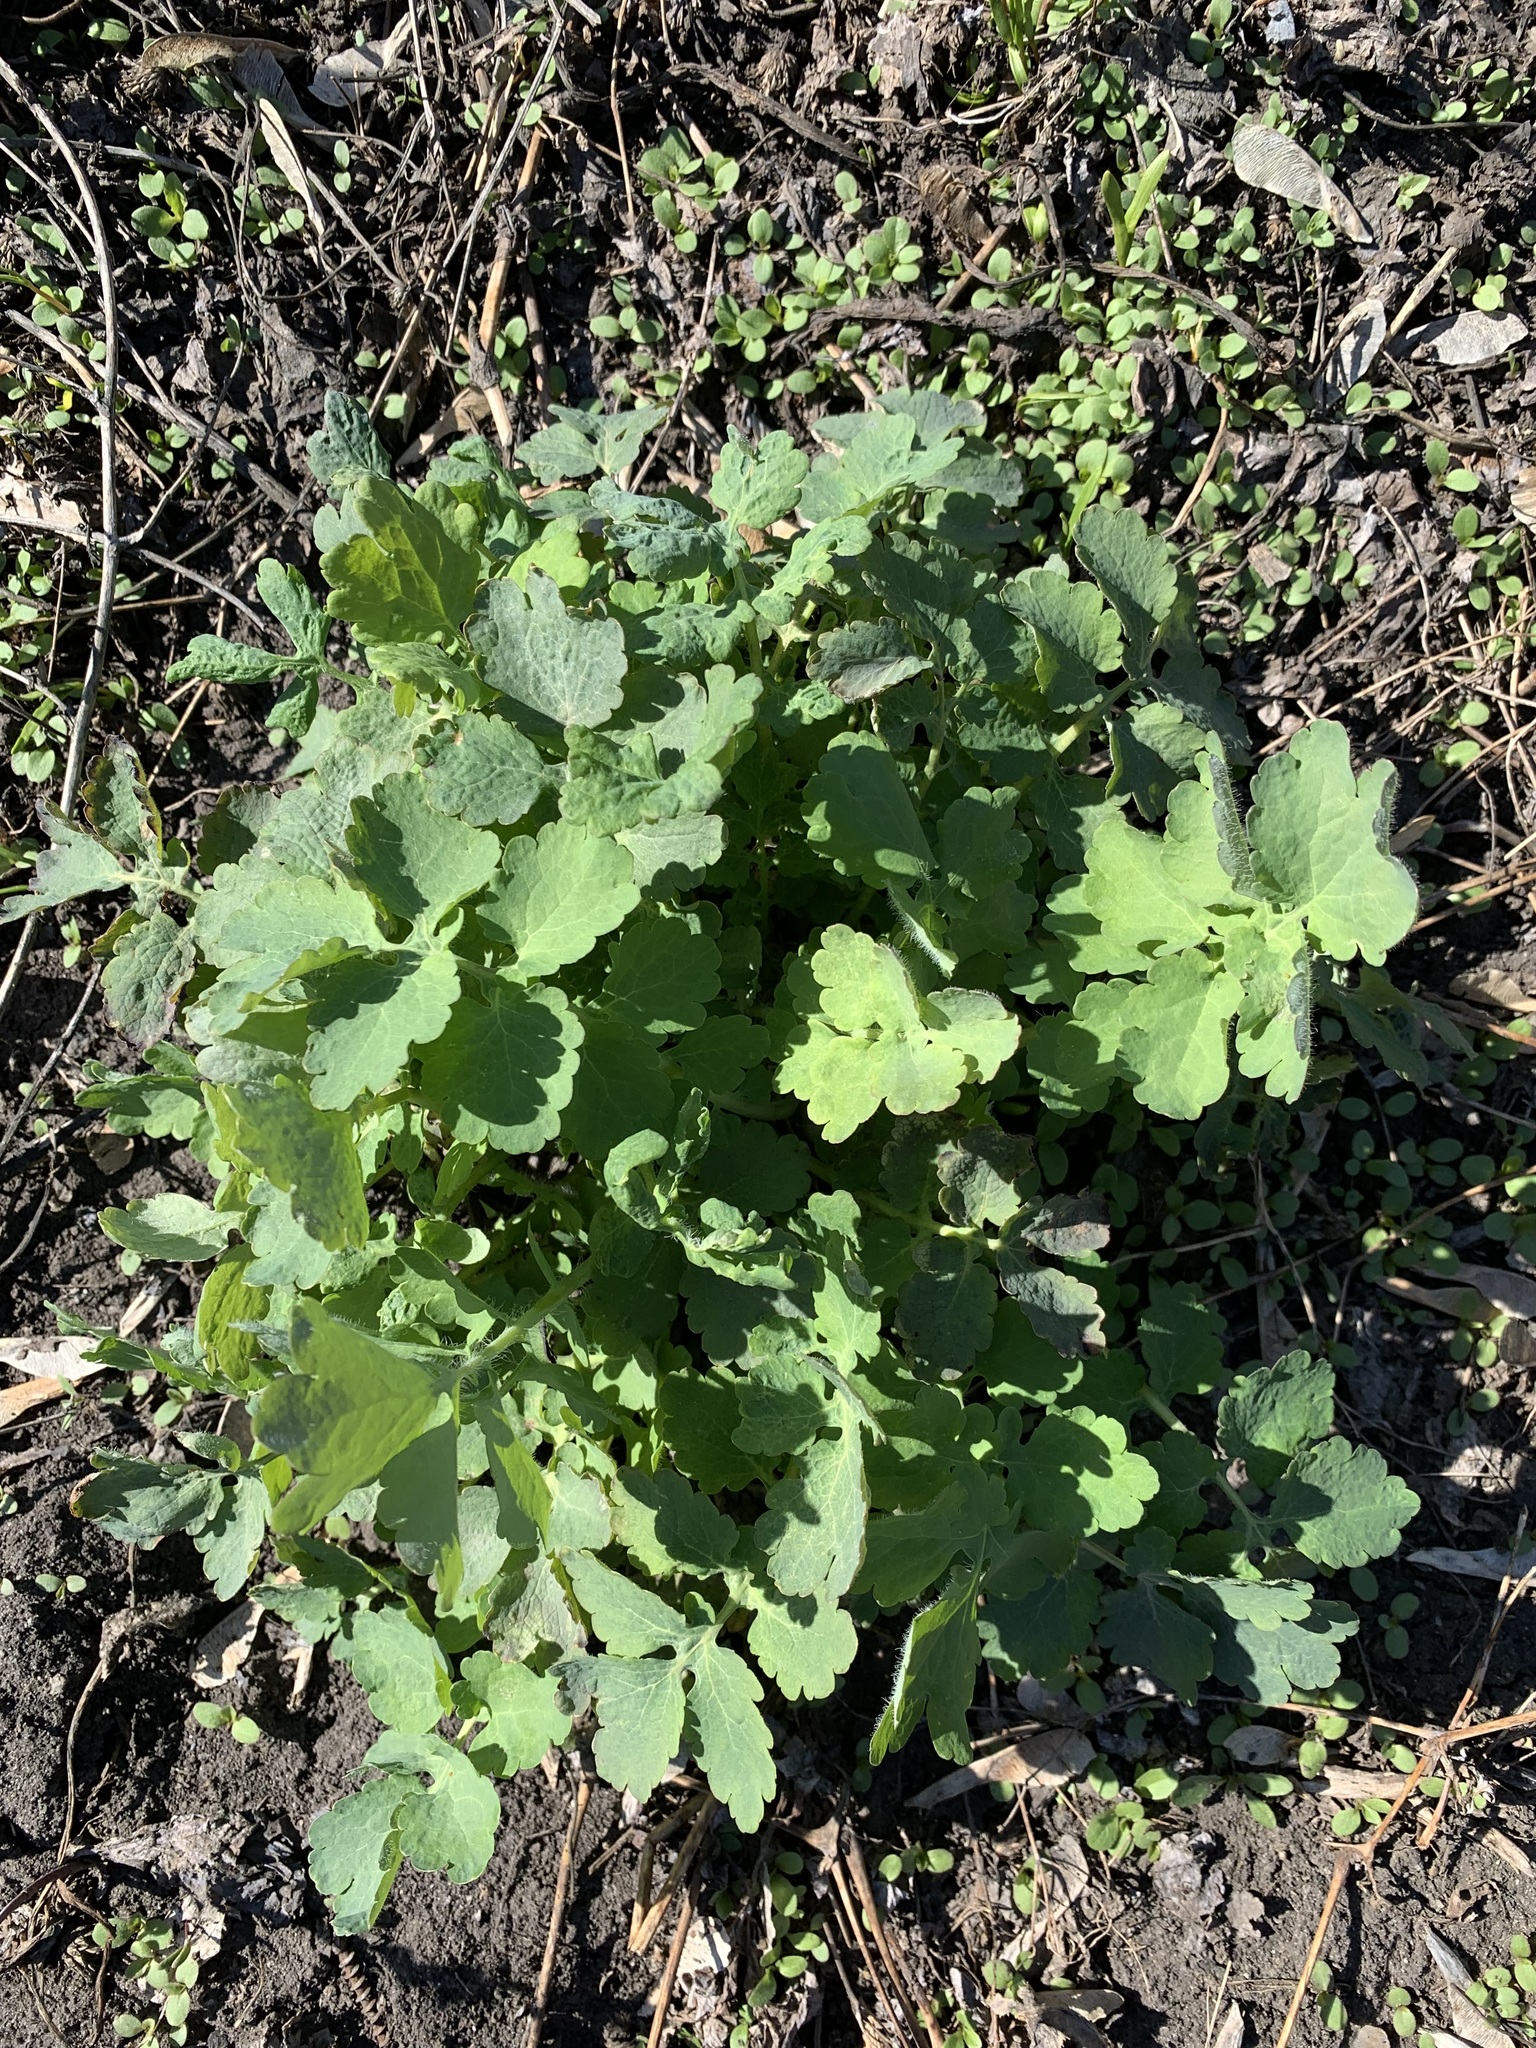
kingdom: Plantae
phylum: Tracheophyta
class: Magnoliopsida
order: Ranunculales
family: Papaveraceae
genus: Chelidonium
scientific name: Chelidonium majus
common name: Greater celandine
